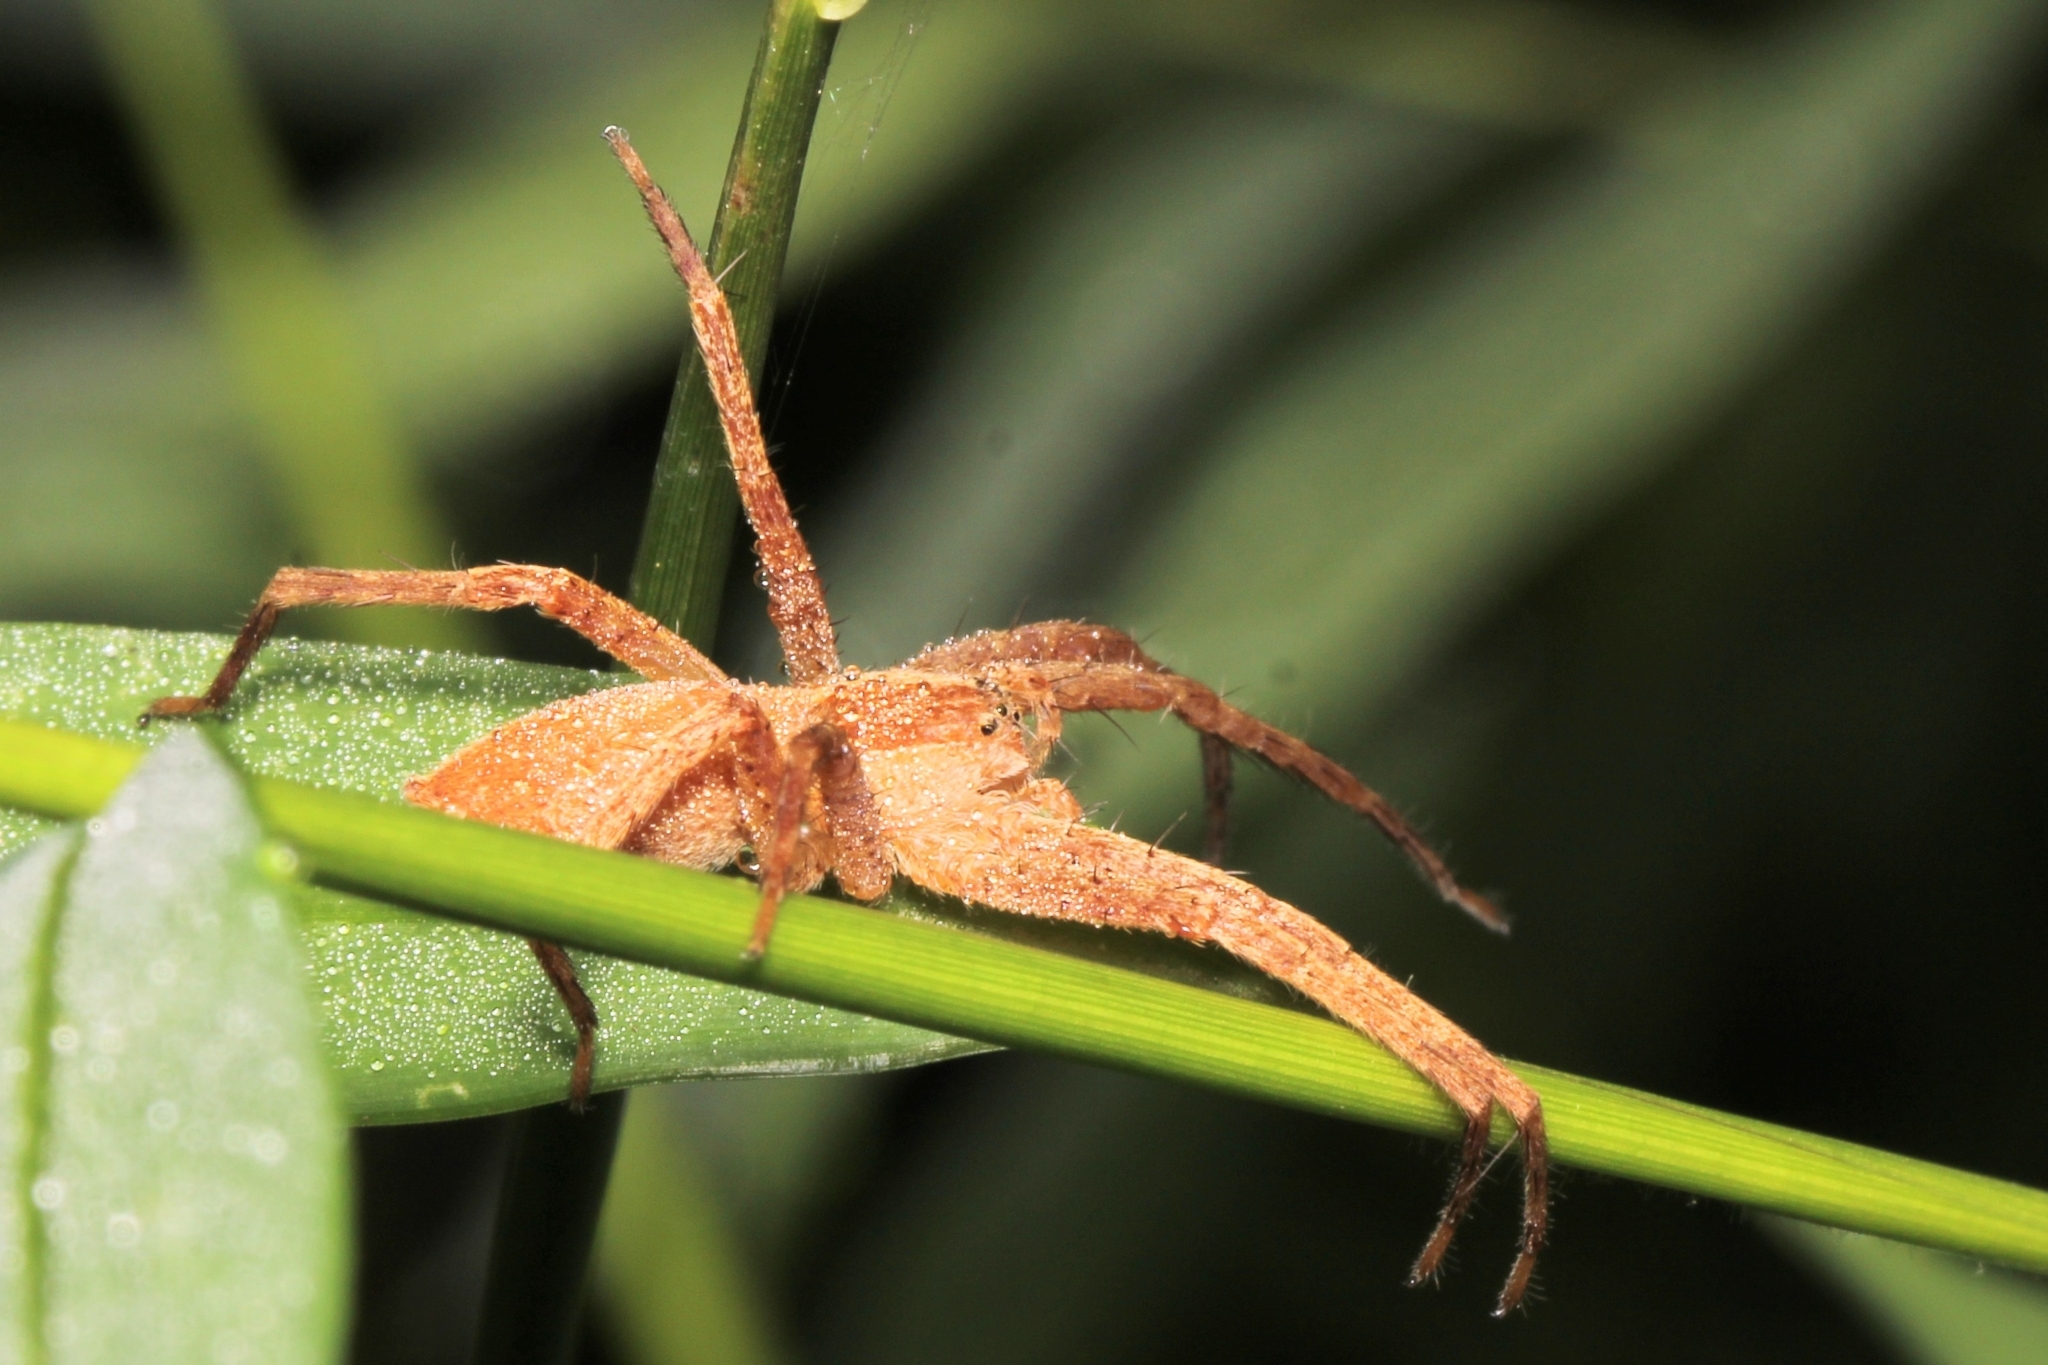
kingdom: Animalia
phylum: Arthropoda
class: Arachnida
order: Araneae
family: Pisauridae
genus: Pisaurina
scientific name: Pisaurina mira
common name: American nursery web spider
